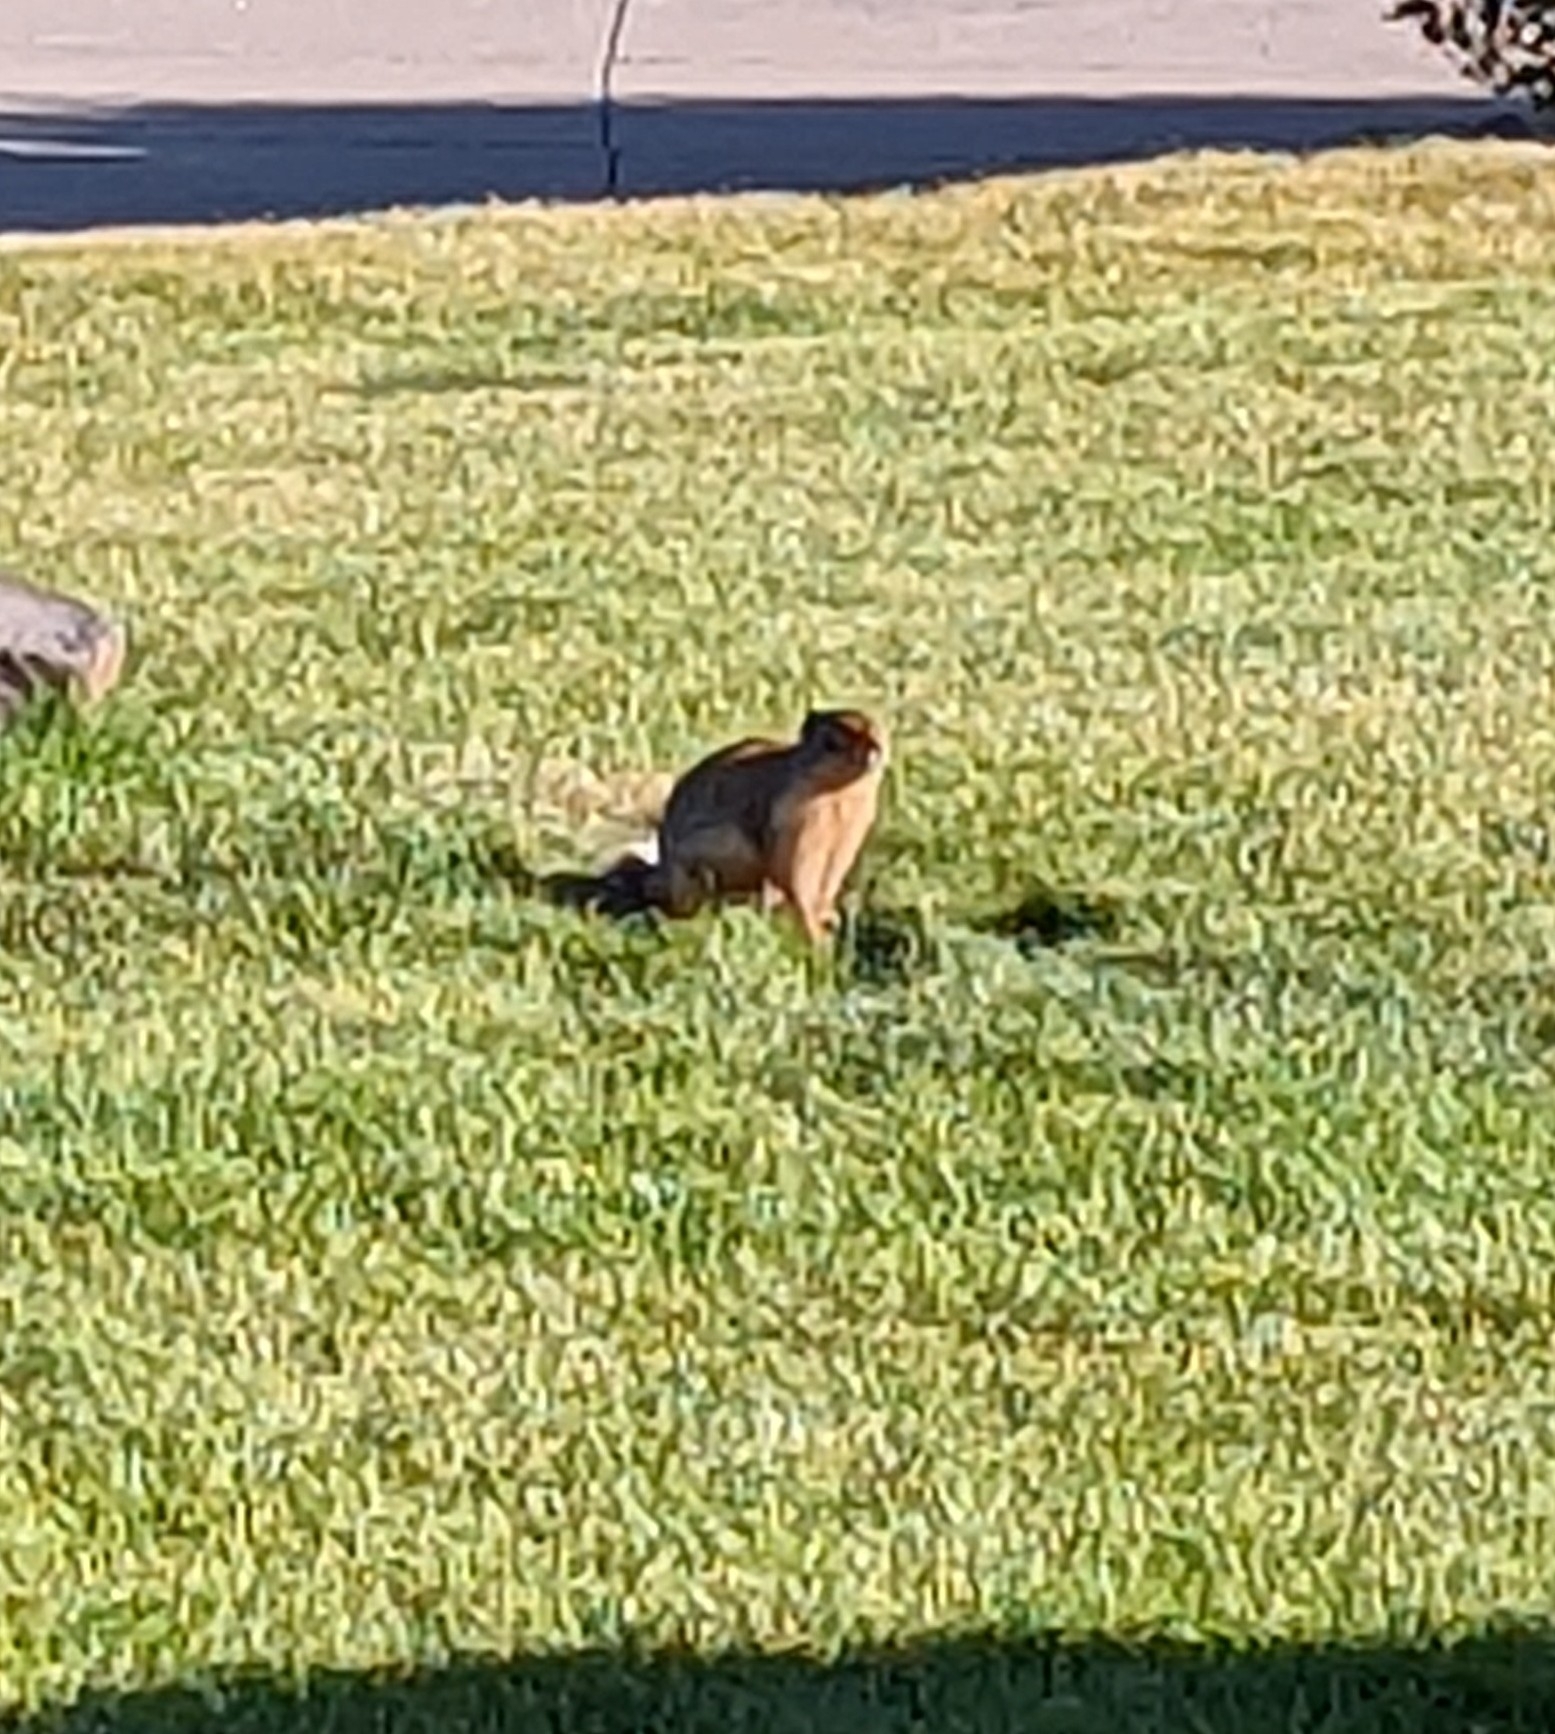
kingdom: Animalia
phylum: Chordata
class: Mammalia
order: Rodentia
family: Sciuridae
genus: Urocitellus
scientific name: Urocitellus columbianus
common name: Columbian ground squirrel
